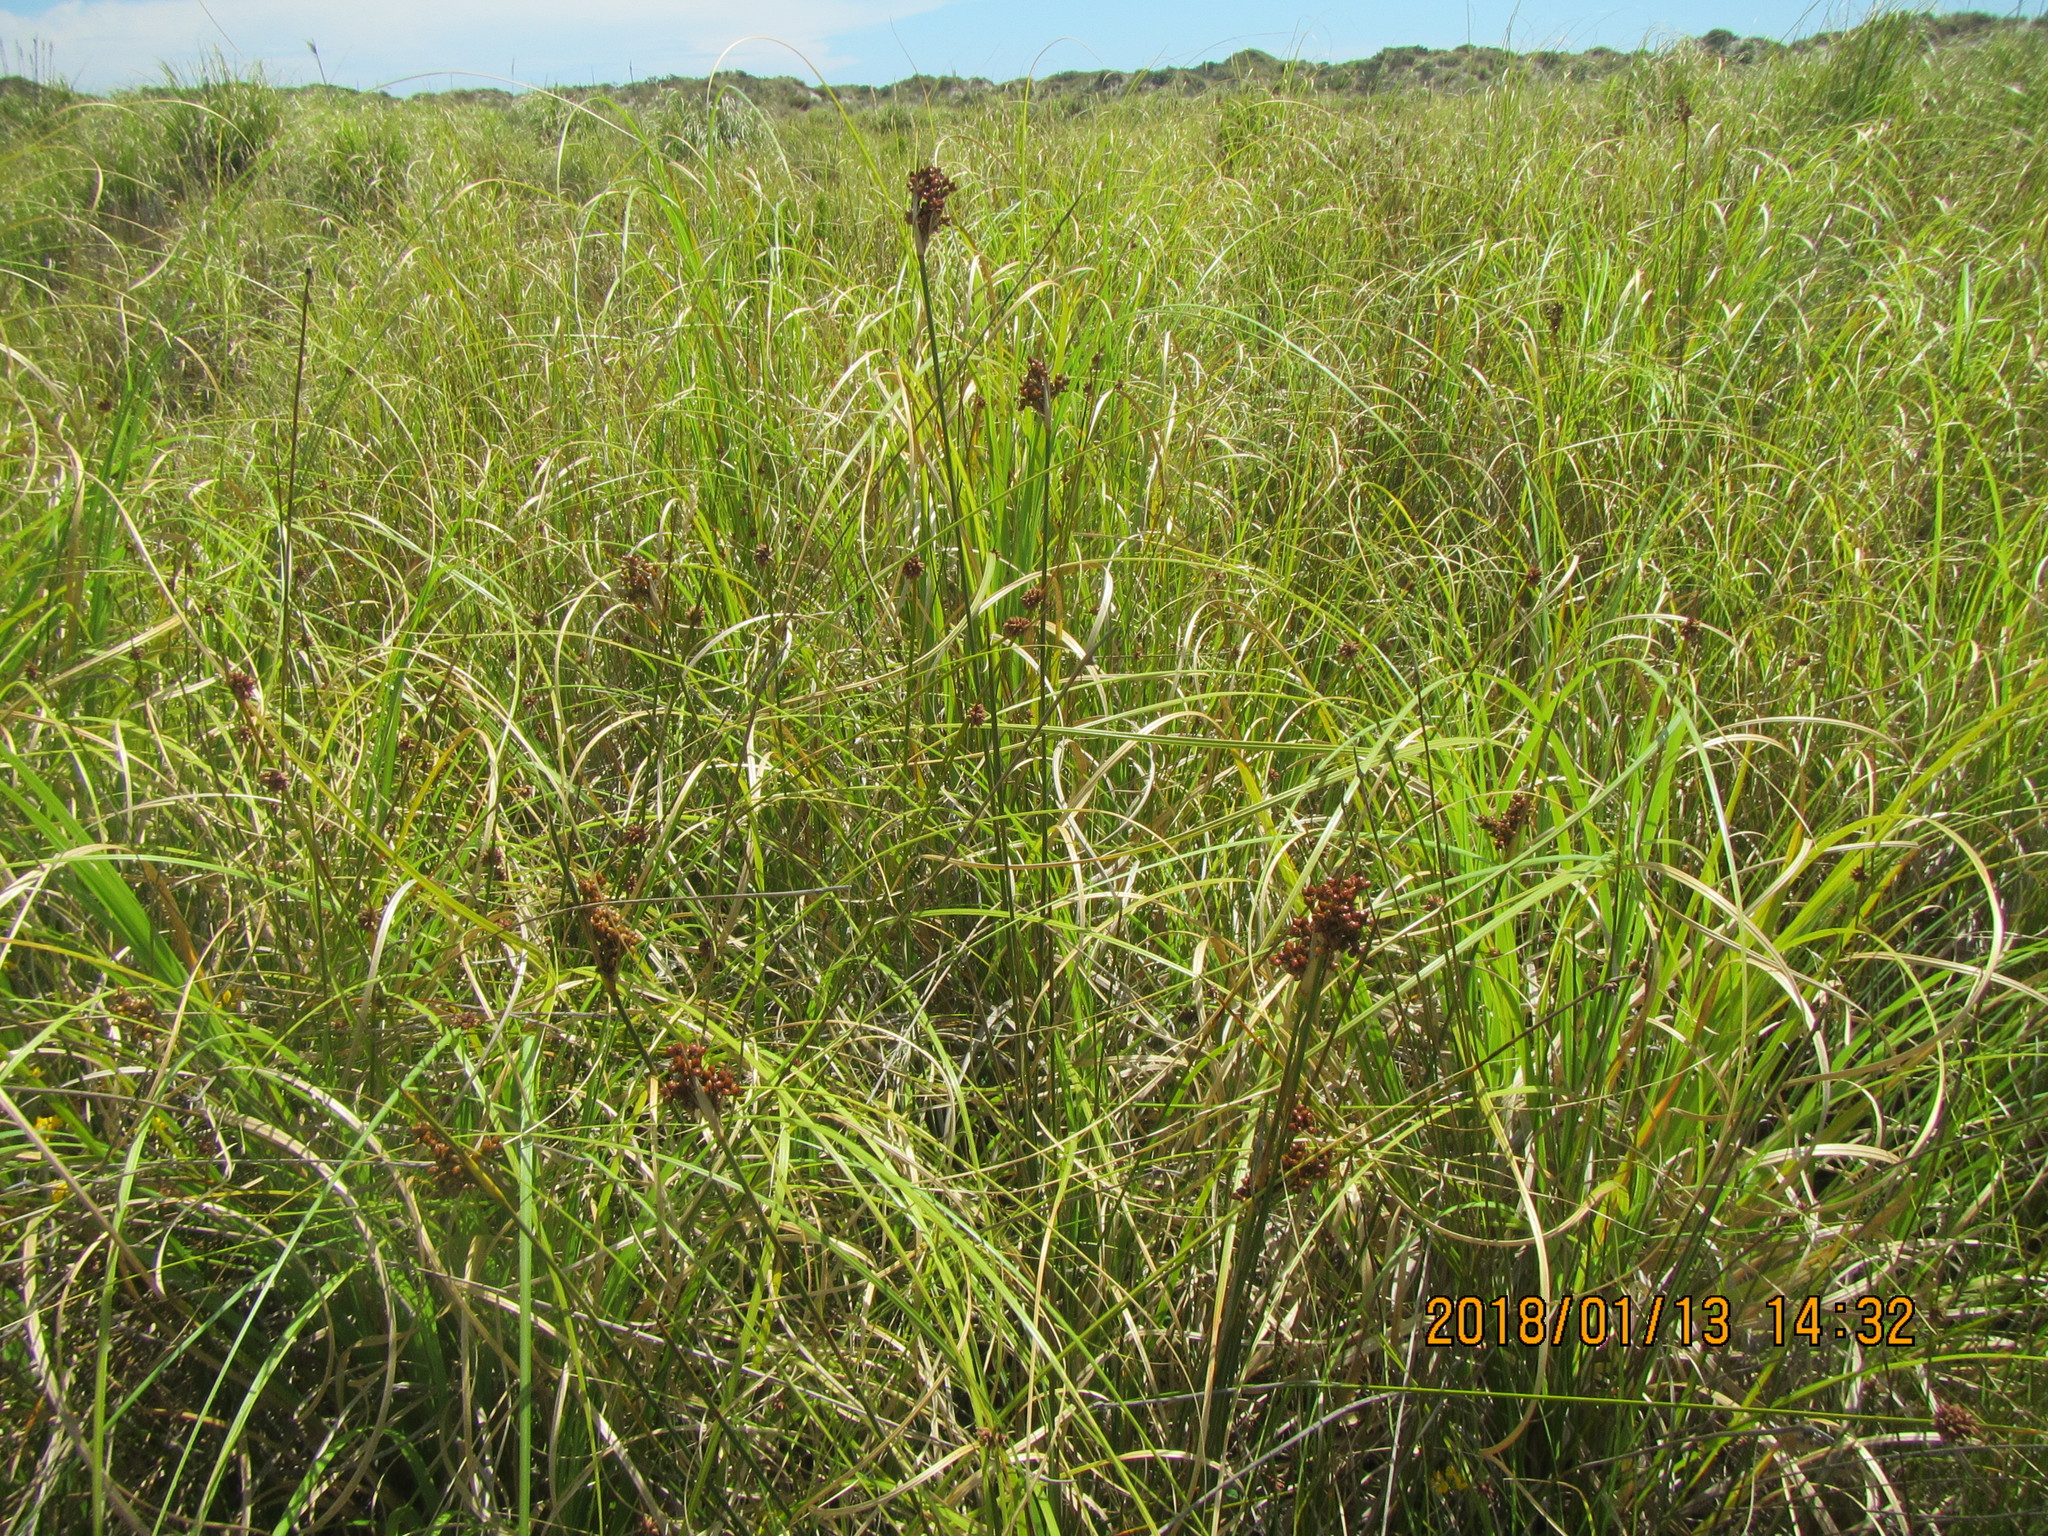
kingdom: Plantae
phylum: Tracheophyta
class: Liliopsida
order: Poales
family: Juncaceae
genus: Juncus
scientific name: Juncus acutus
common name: Sharp rush
